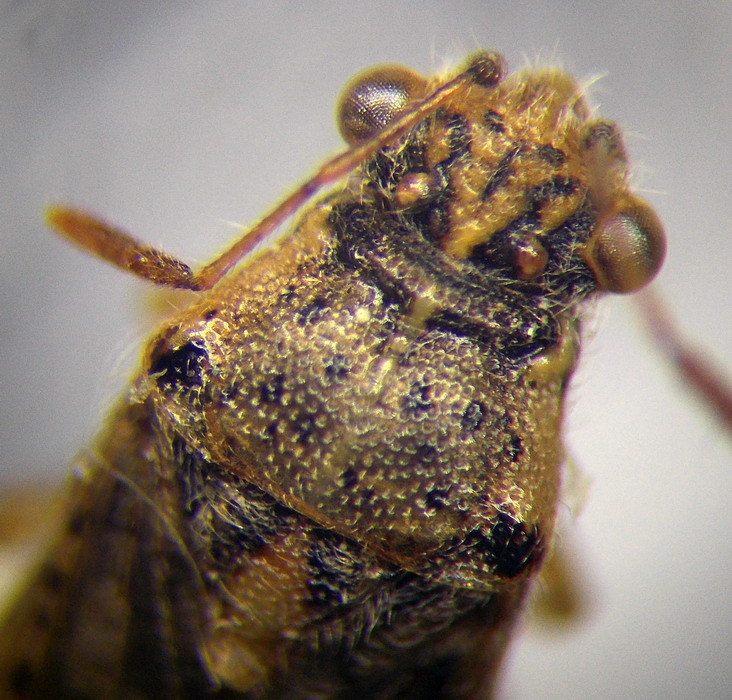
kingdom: Animalia
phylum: Arthropoda
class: Insecta
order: Hemiptera
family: Rhopalidae
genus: Brachycarenus
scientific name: Brachycarenus tigrinus
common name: Scentless plant bug
